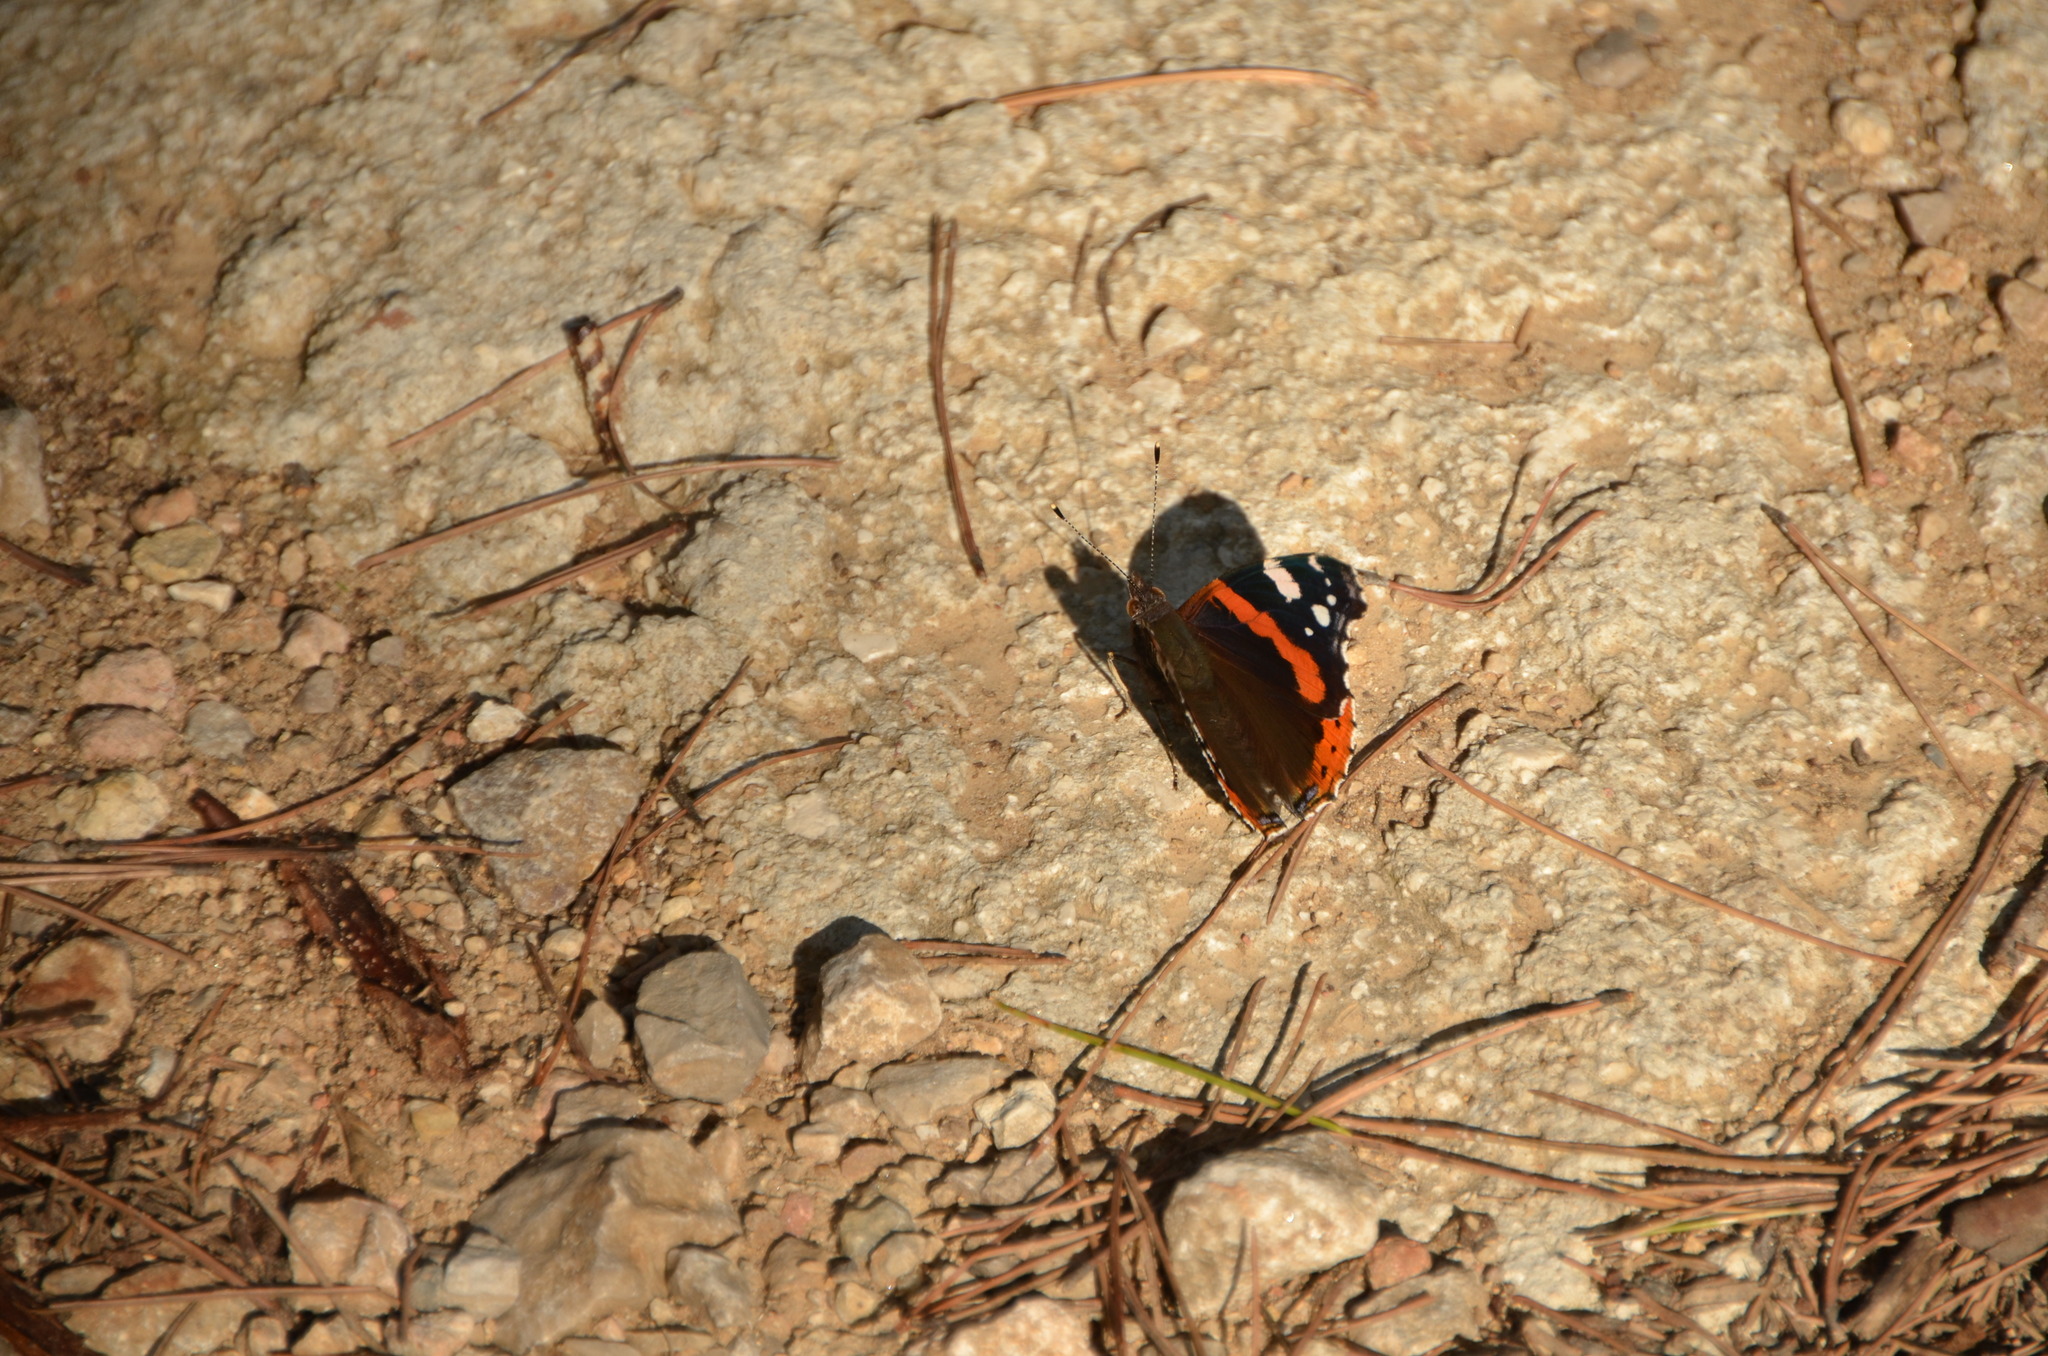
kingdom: Animalia
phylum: Arthropoda
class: Insecta
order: Lepidoptera
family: Nymphalidae
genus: Vanessa
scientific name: Vanessa atalanta
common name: Red admiral
